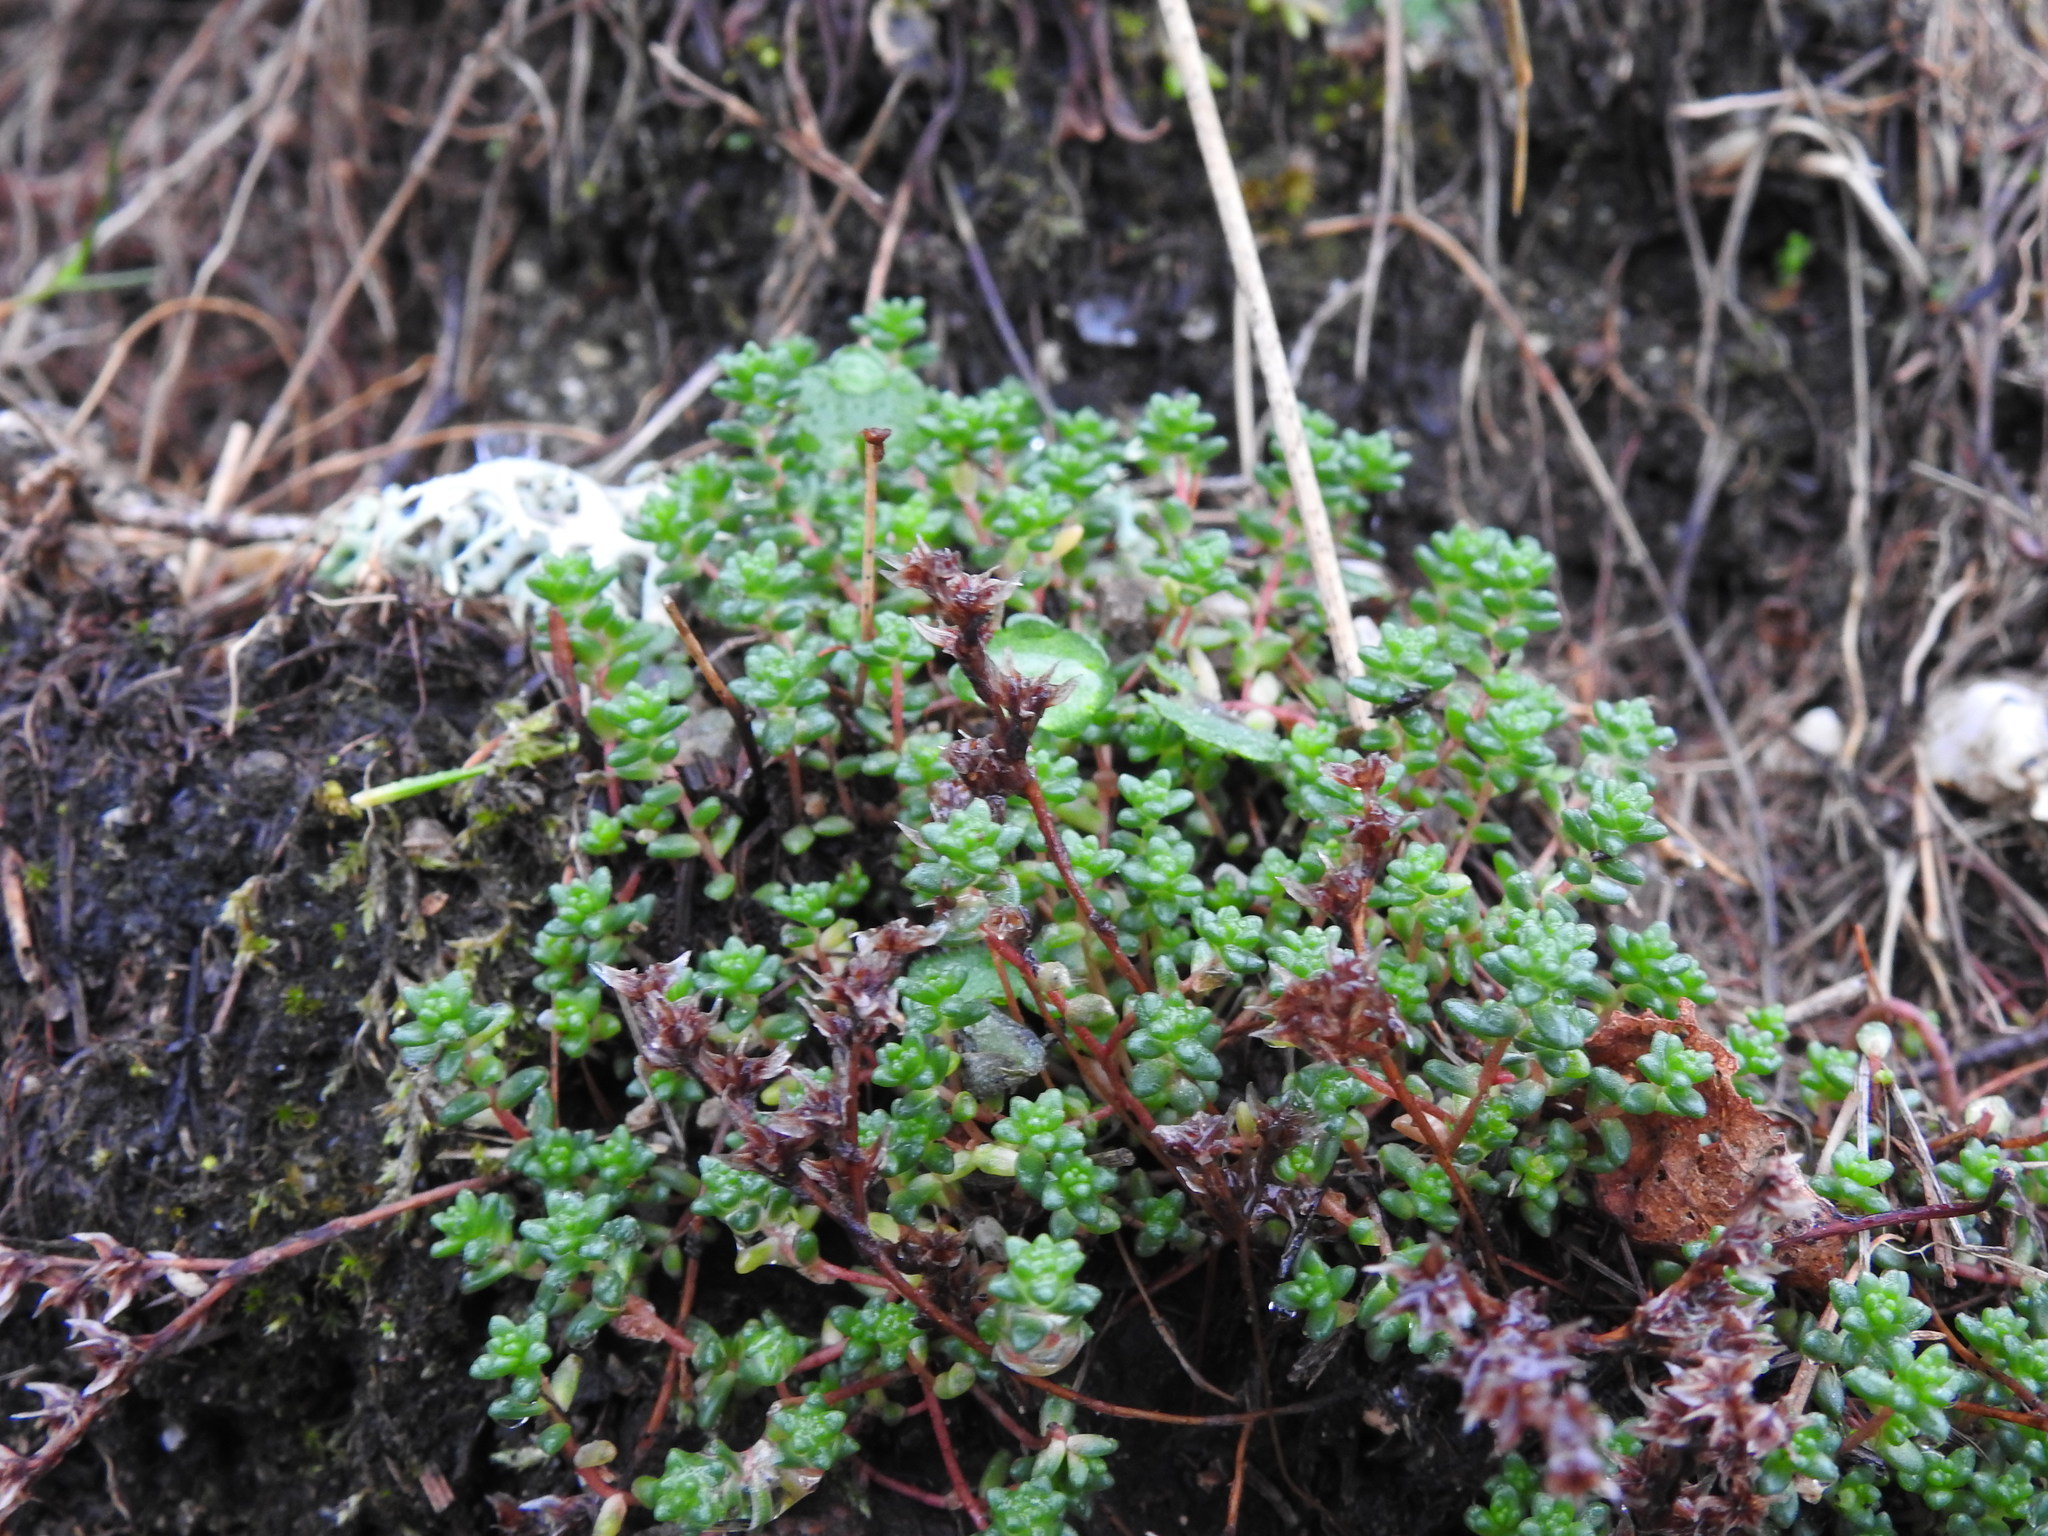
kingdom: Plantae
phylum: Tracheophyta
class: Magnoliopsida
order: Saxifragales
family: Crassulaceae
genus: Sedum
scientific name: Sedum anglicum
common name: English stonecrop
